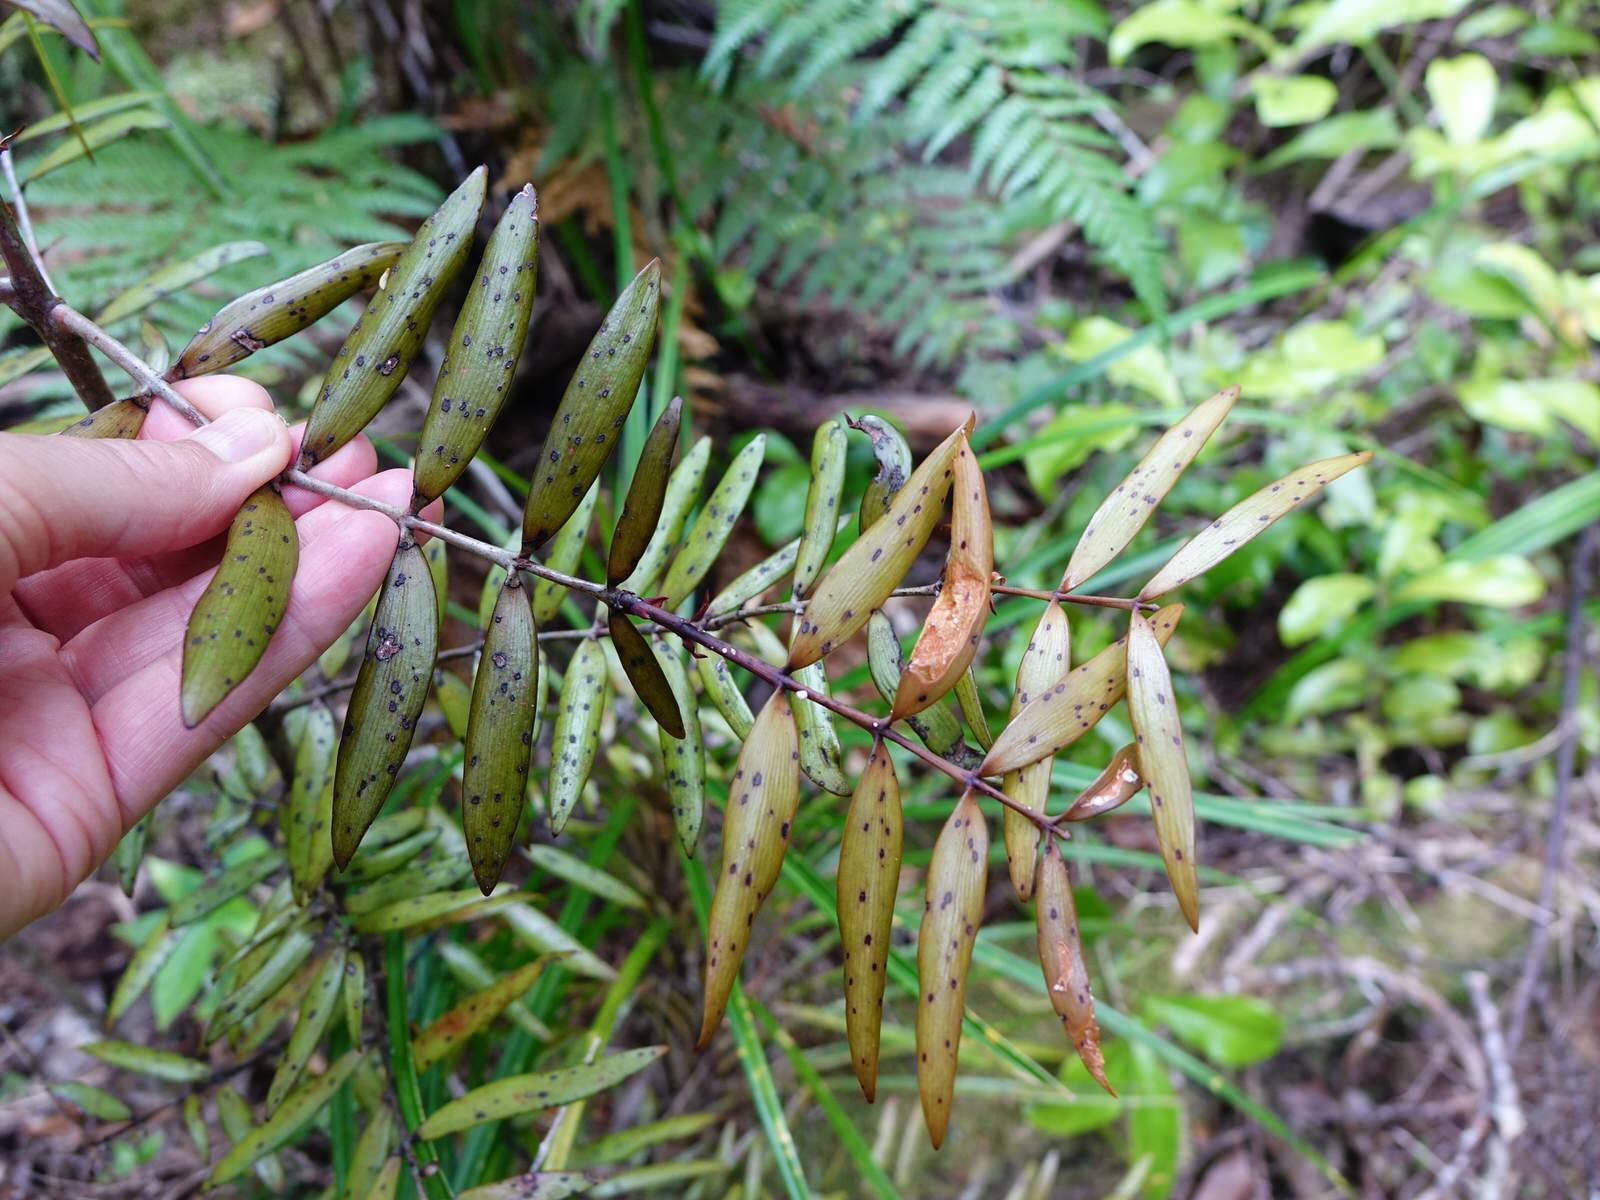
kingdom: Plantae
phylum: Tracheophyta
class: Pinopsida
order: Pinales
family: Araucariaceae
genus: Agathis
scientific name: Agathis australis
